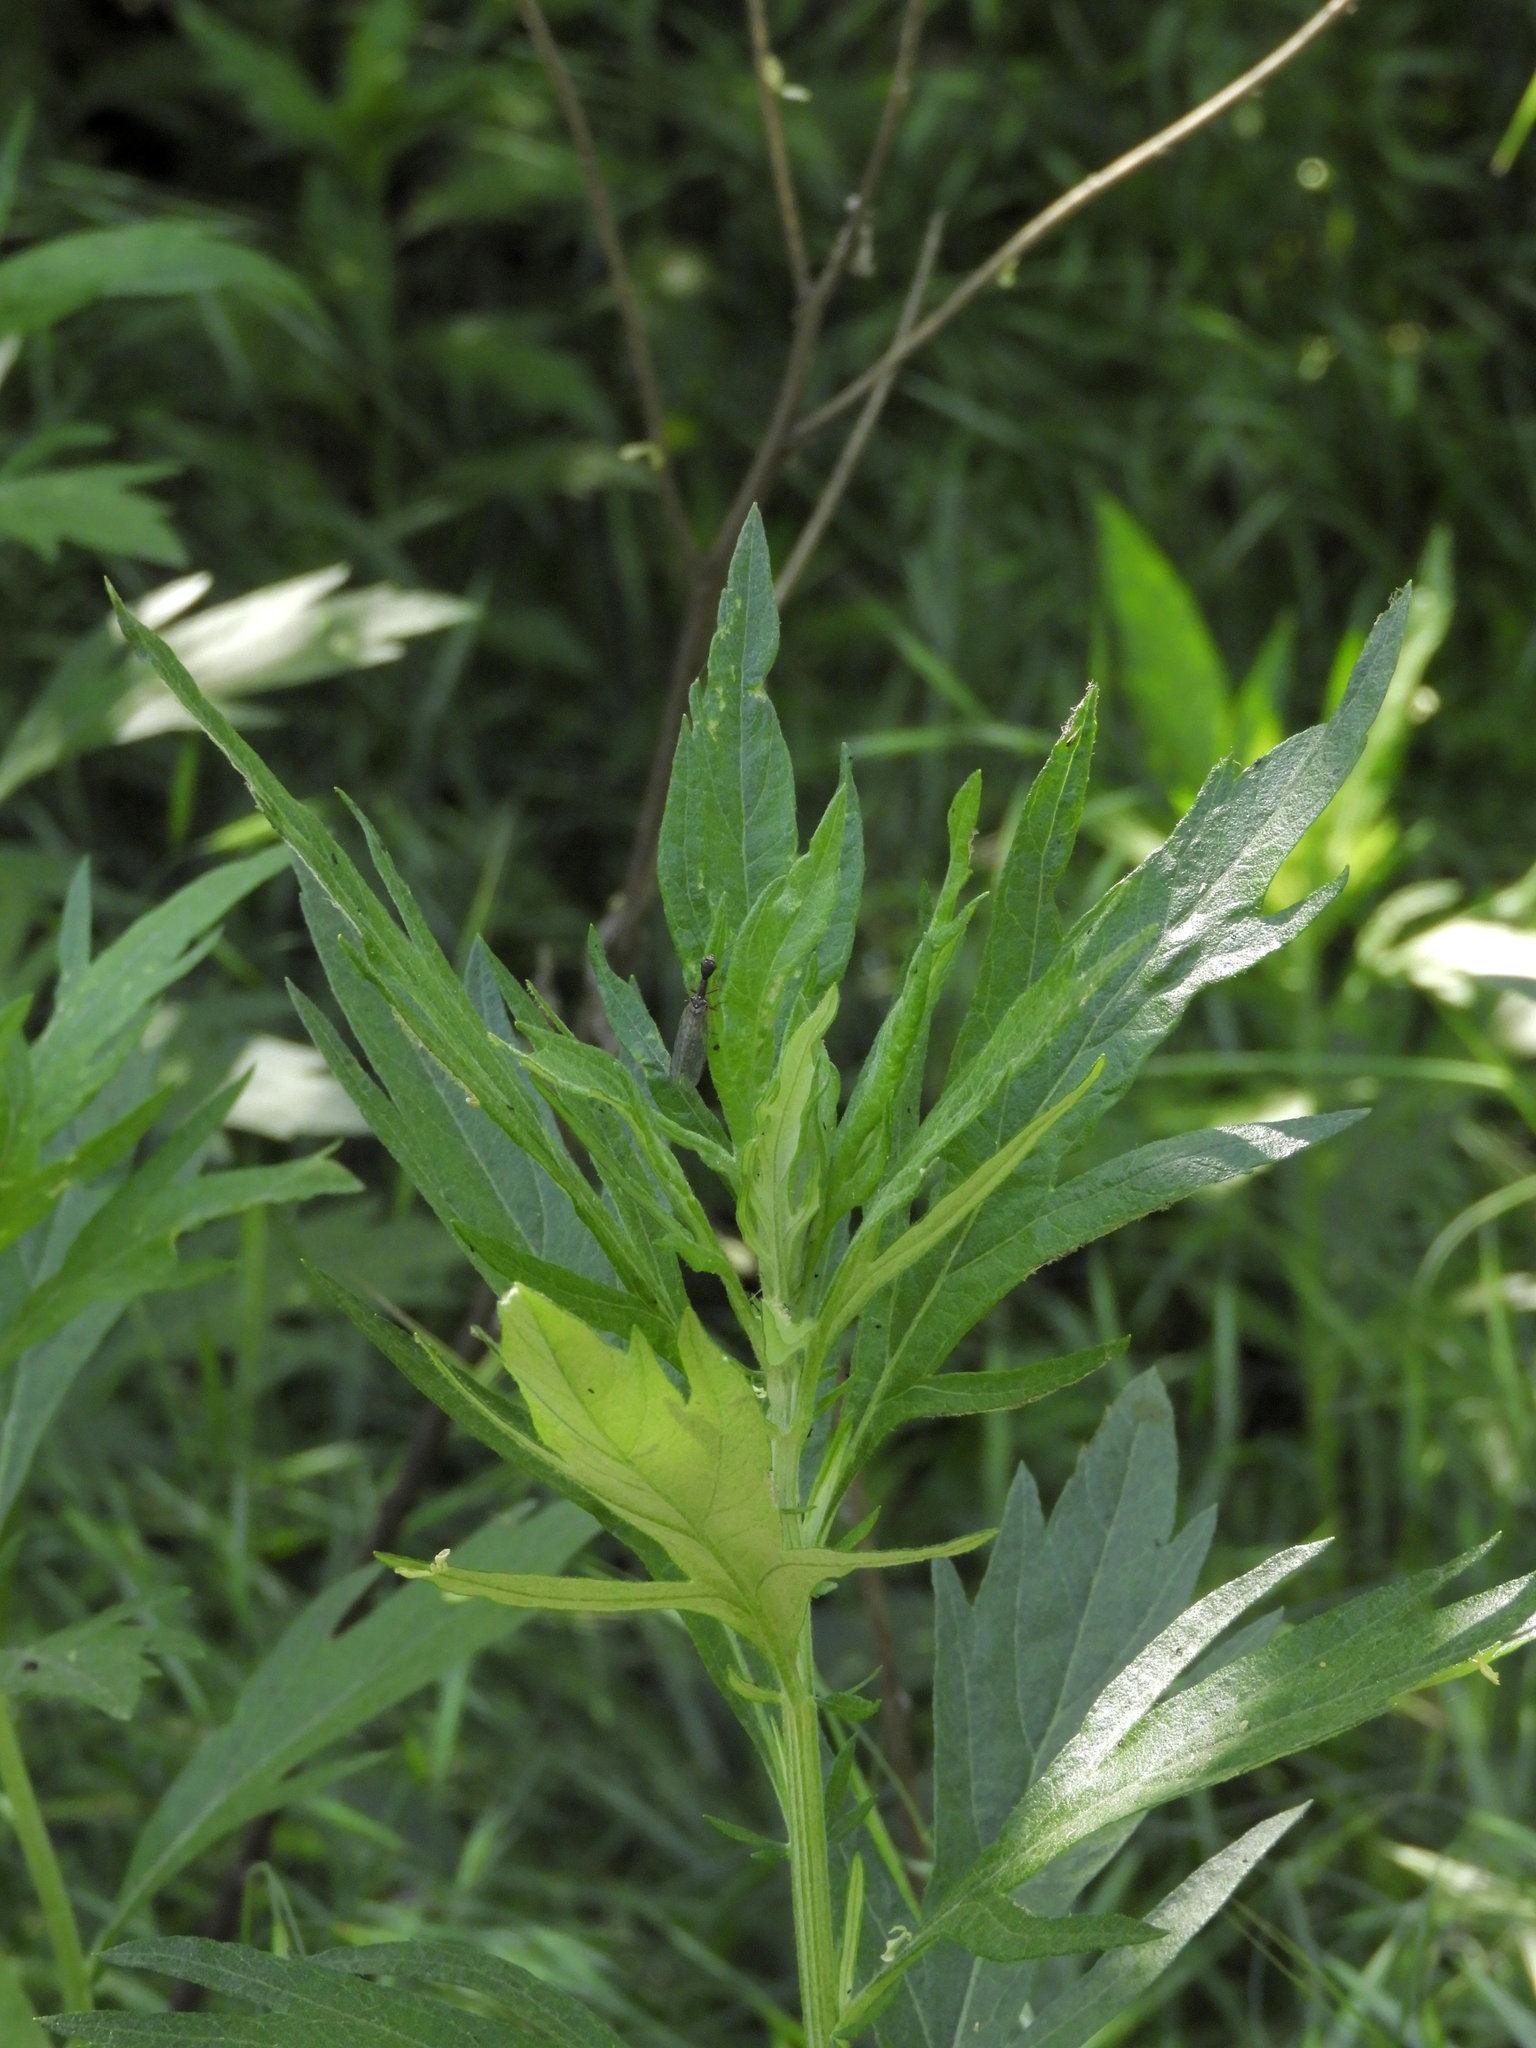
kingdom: Plantae
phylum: Tracheophyta
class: Magnoliopsida
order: Asterales
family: Asteraceae
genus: Artemisia
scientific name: Artemisia douglasiana
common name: Northwest mugwort
